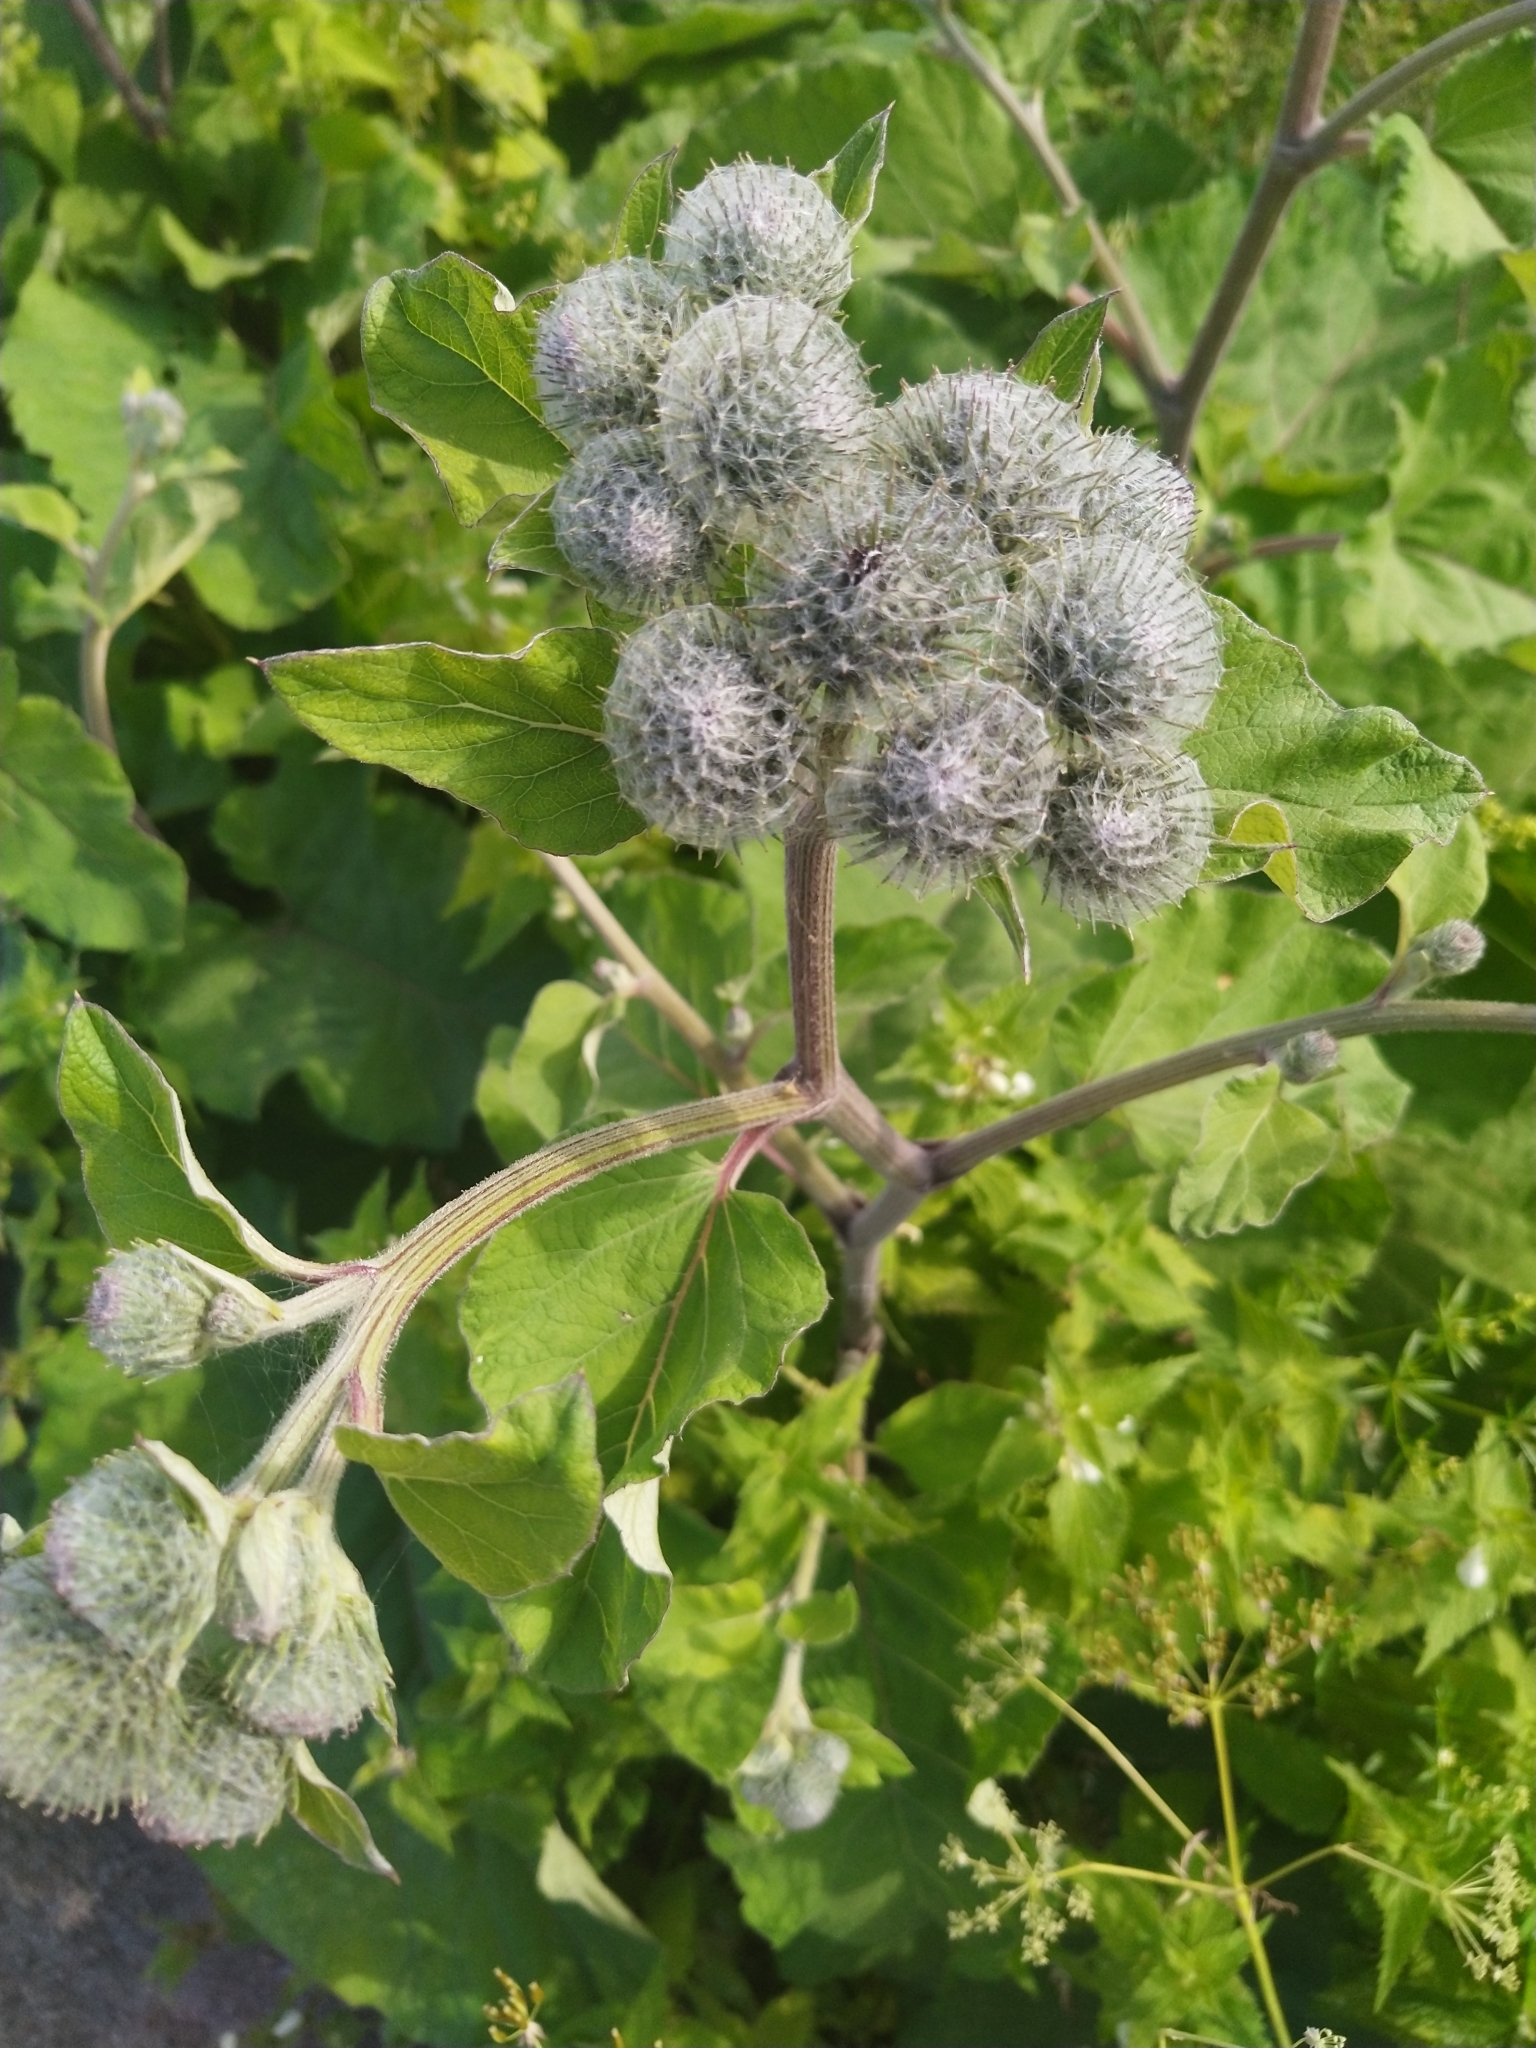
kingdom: Plantae
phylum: Tracheophyta
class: Magnoliopsida
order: Asterales
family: Asteraceae
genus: Arctium
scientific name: Arctium tomentosum
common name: Woolly burdock
